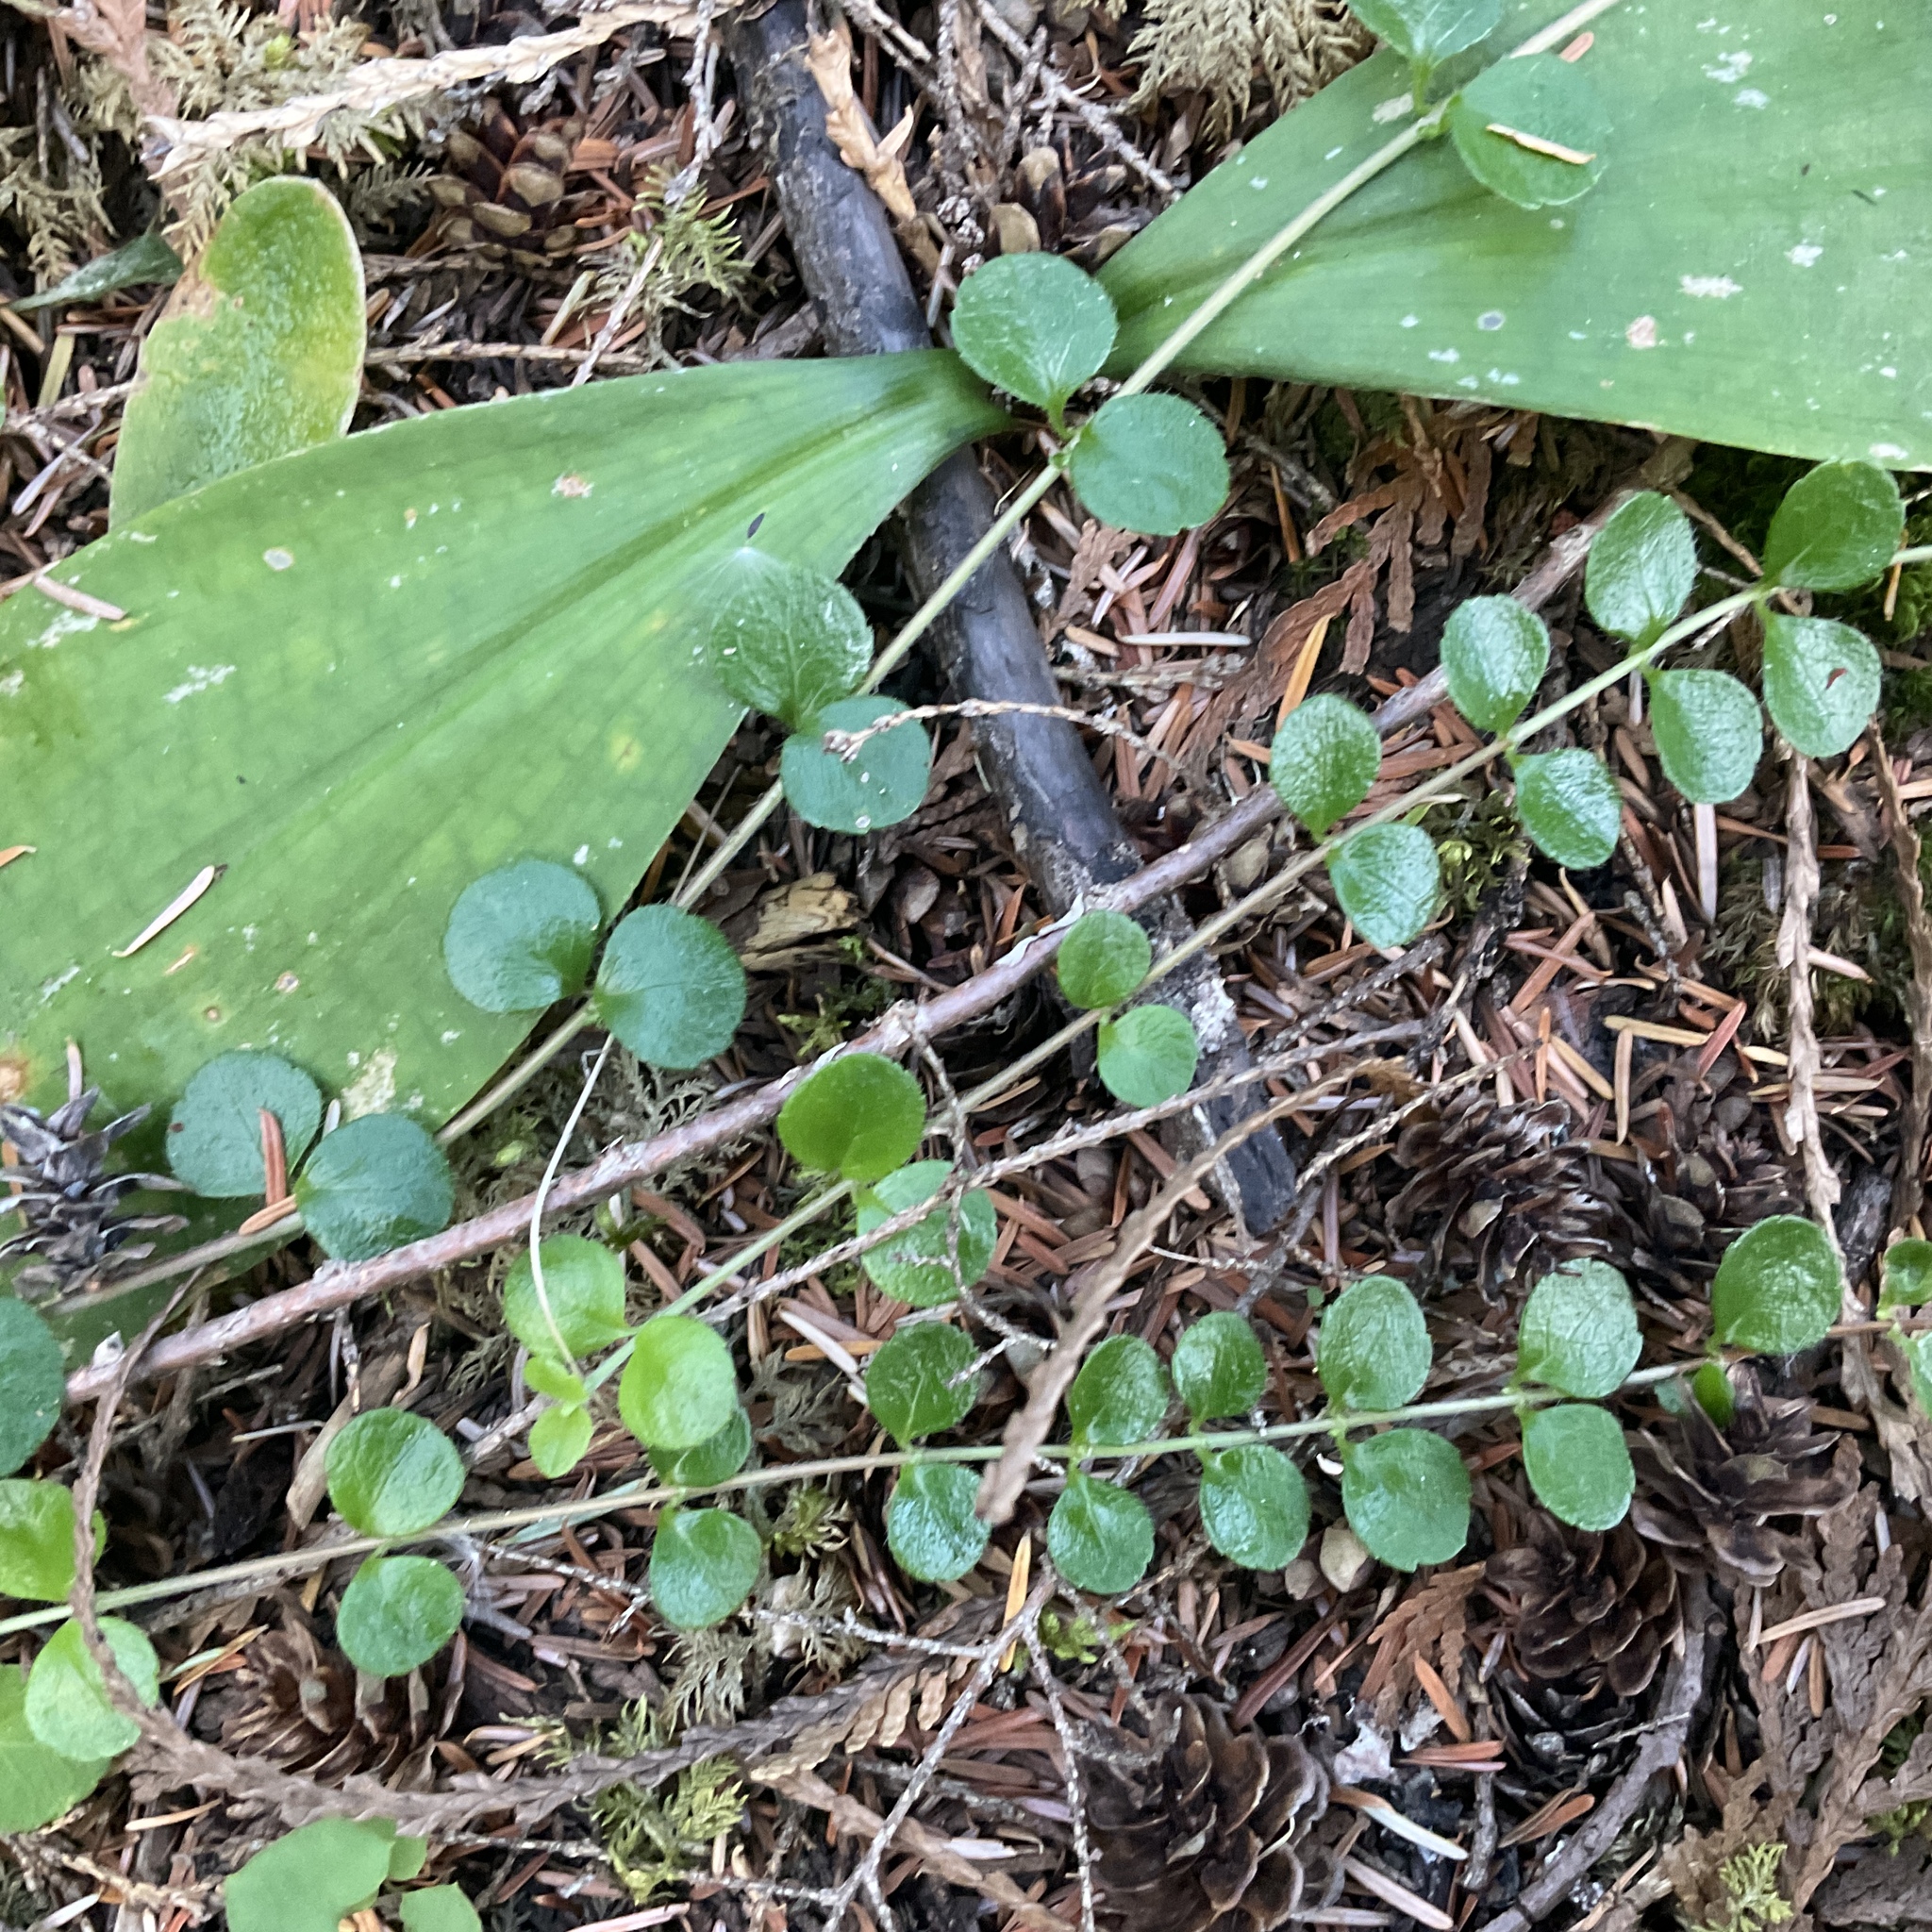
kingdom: Plantae
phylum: Tracheophyta
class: Magnoliopsida
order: Dipsacales
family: Caprifoliaceae
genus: Linnaea
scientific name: Linnaea borealis
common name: Twinflower
